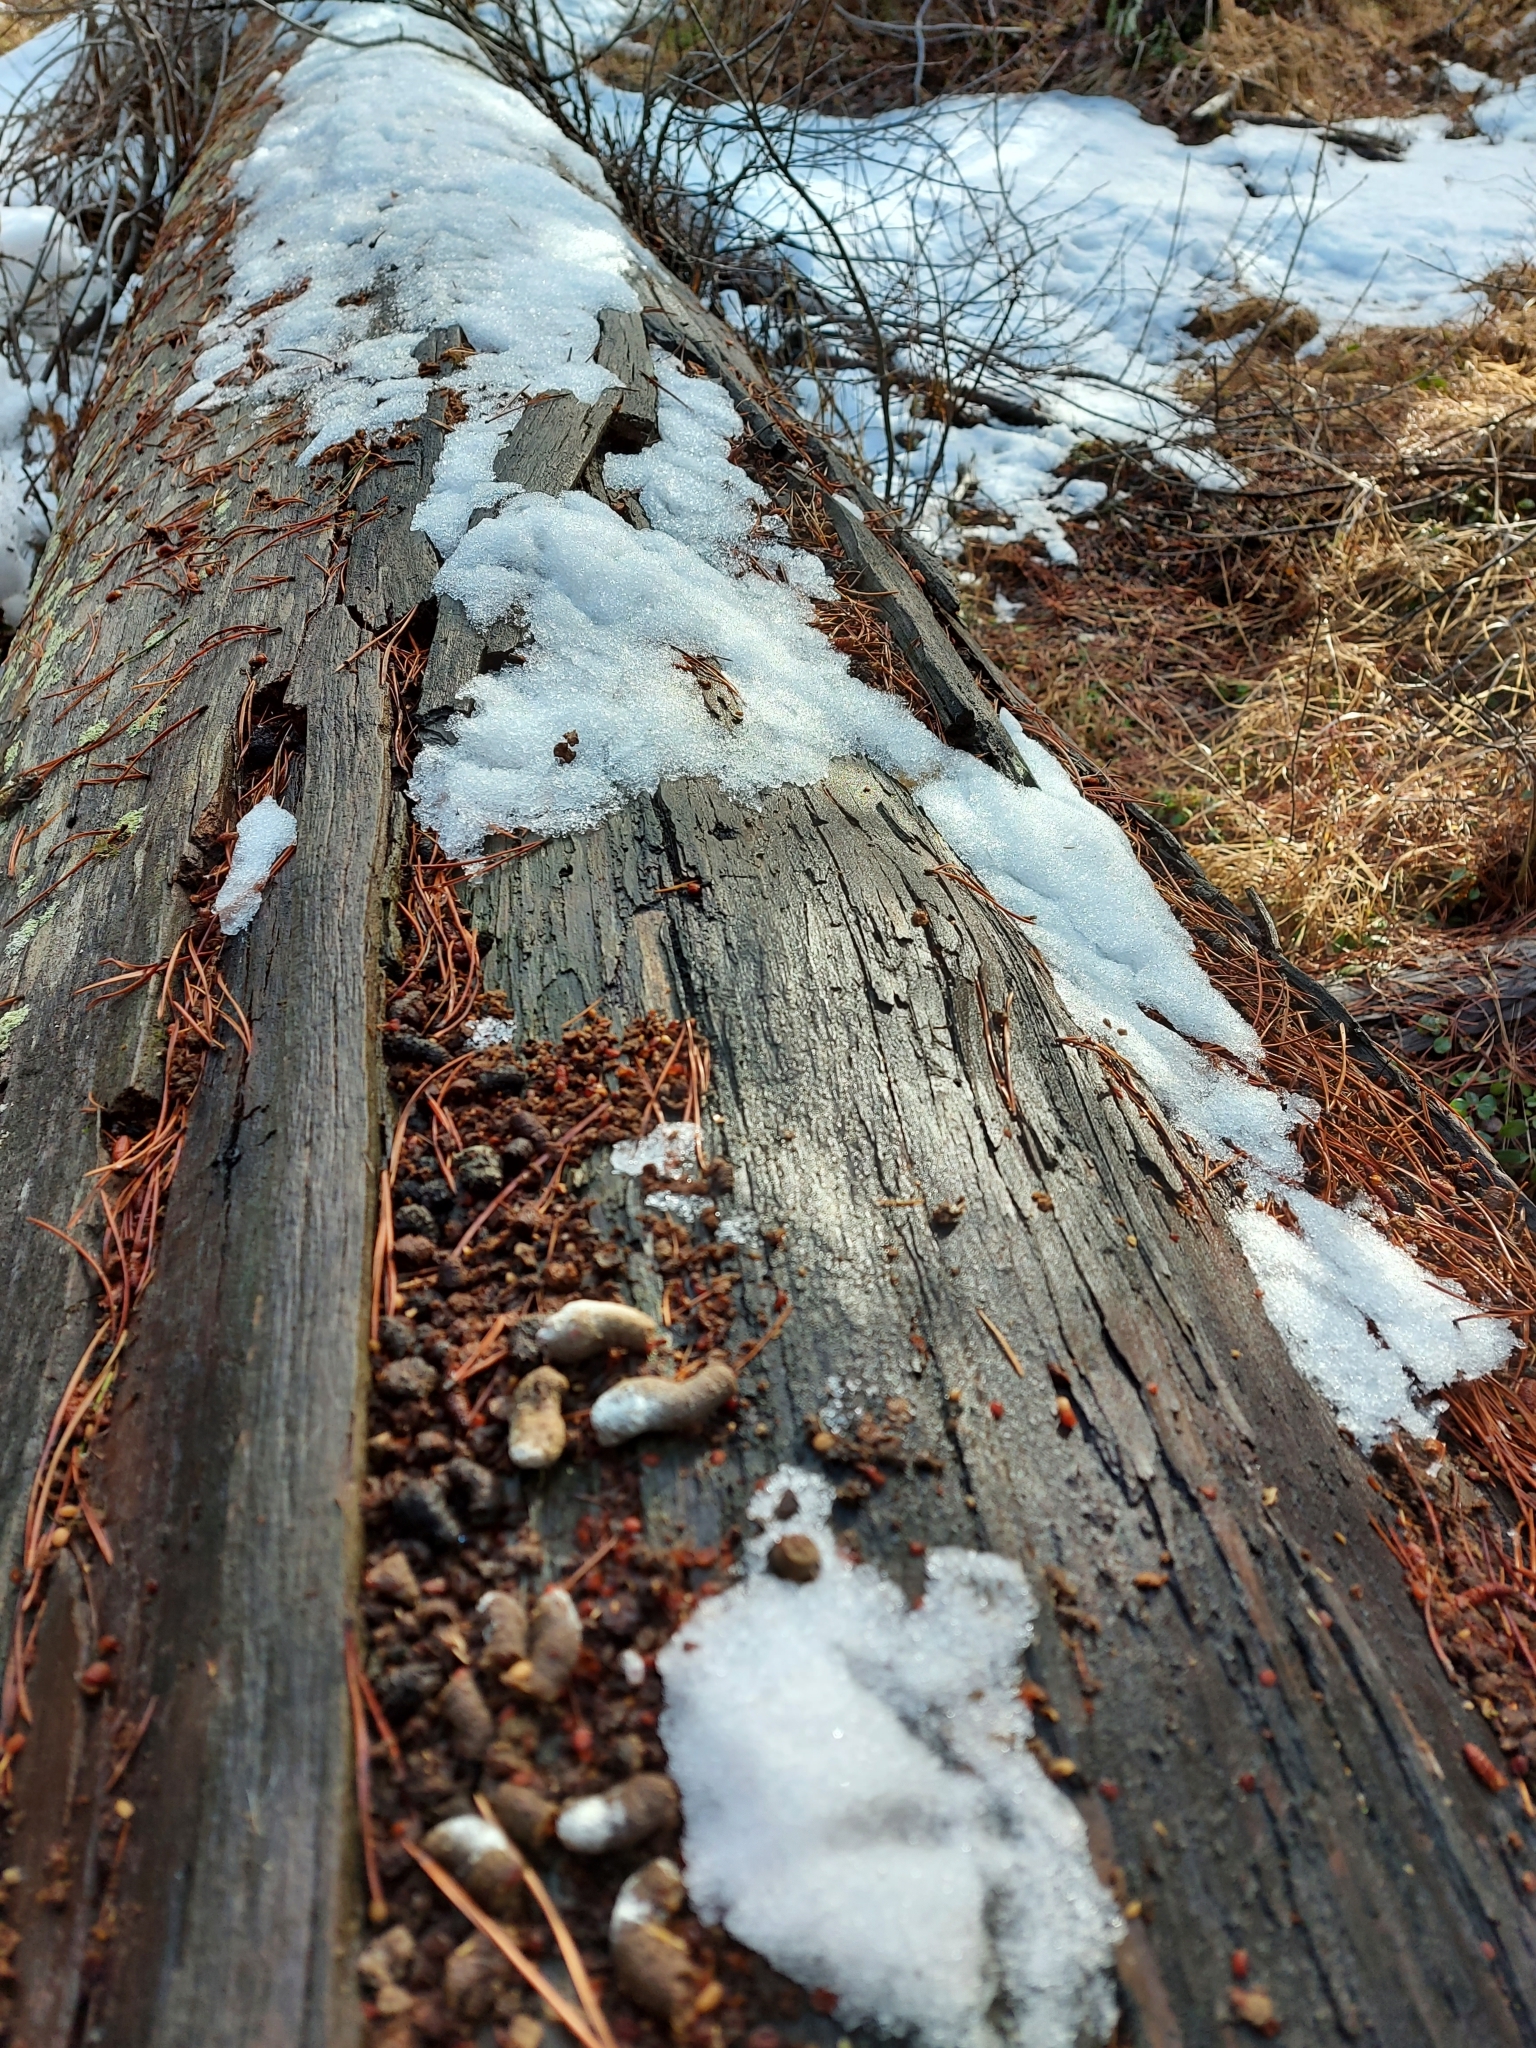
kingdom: Animalia
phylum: Chordata
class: Aves
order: Galliformes
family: Phasianidae
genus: Bonasa
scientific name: Bonasa umbellus
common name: Ruffed grouse
